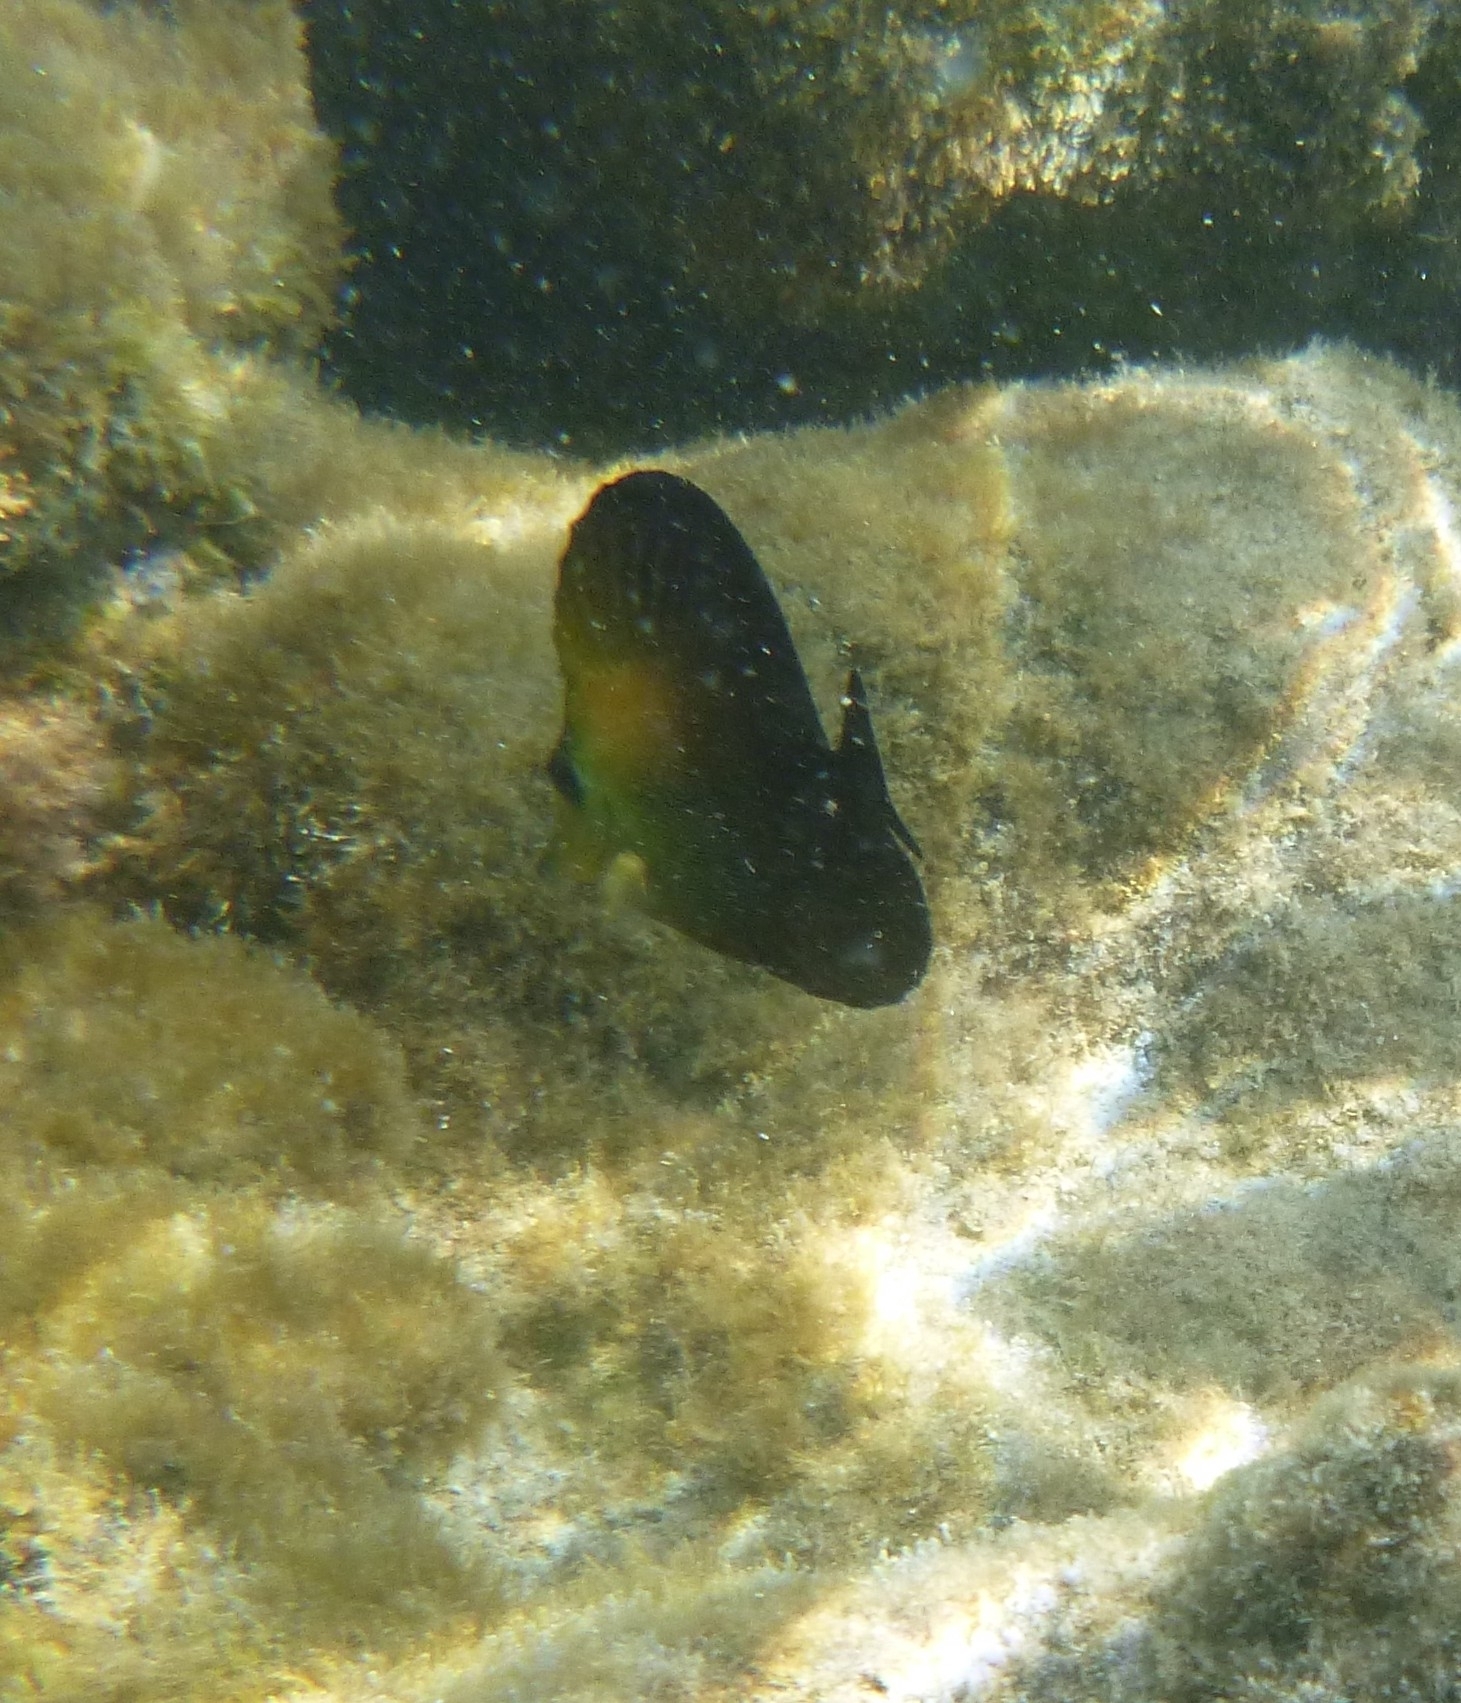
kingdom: Animalia
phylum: Chordata
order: Perciformes
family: Acanthuridae
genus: Zebrasoma
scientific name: Zebrasoma scopas
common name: Twotone tang
